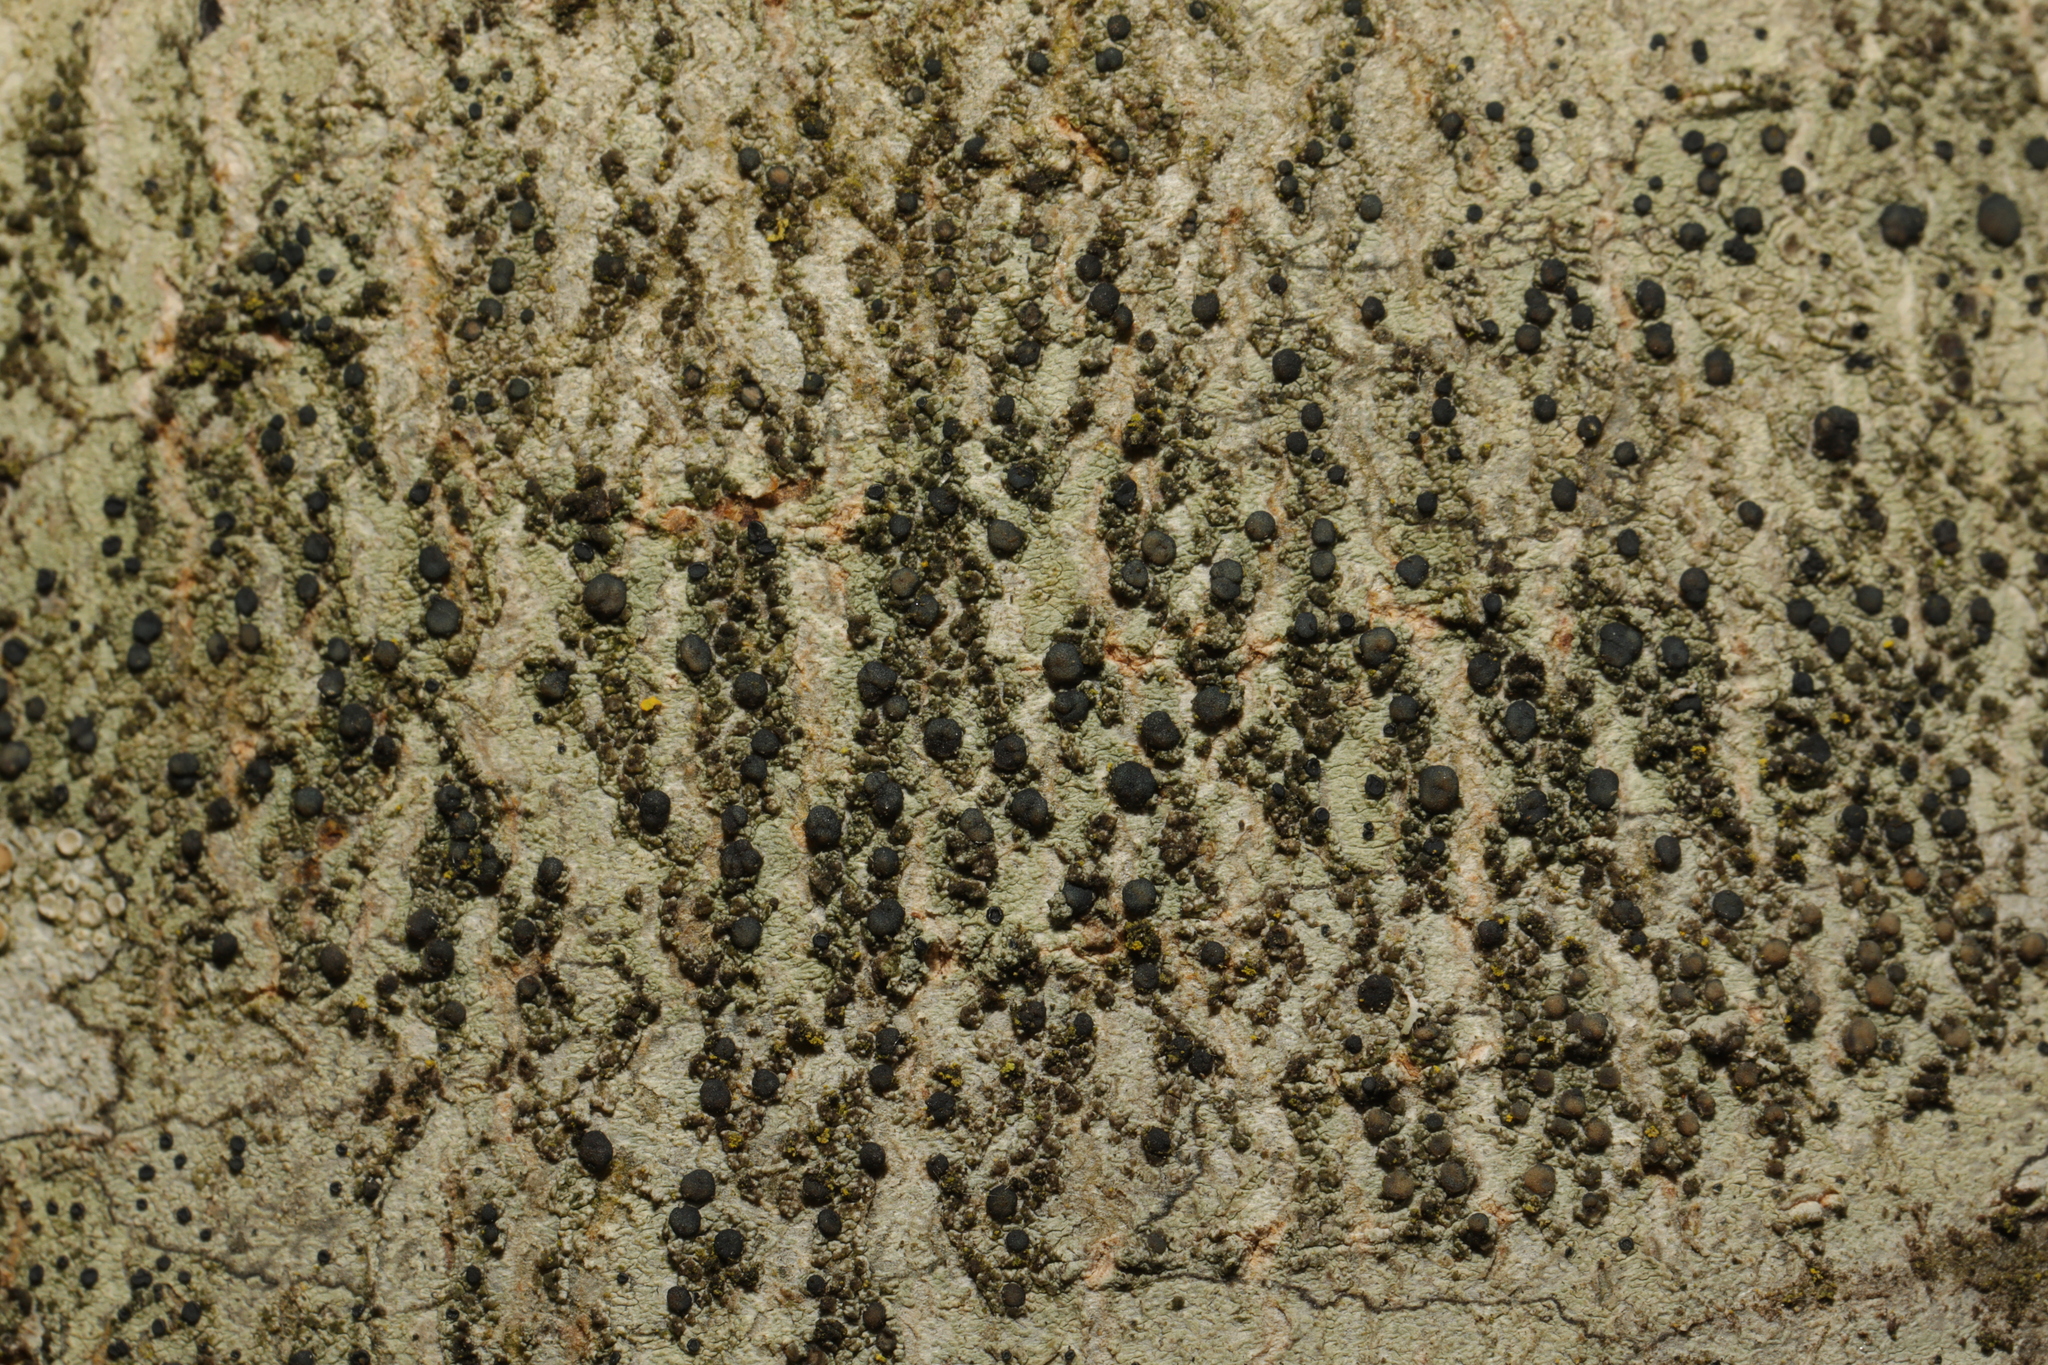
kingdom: Fungi
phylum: Ascomycota
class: Lecanoromycetes
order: Lecanorales
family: Lecanoraceae
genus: Lecidella
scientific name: Lecidella elaeochroma
